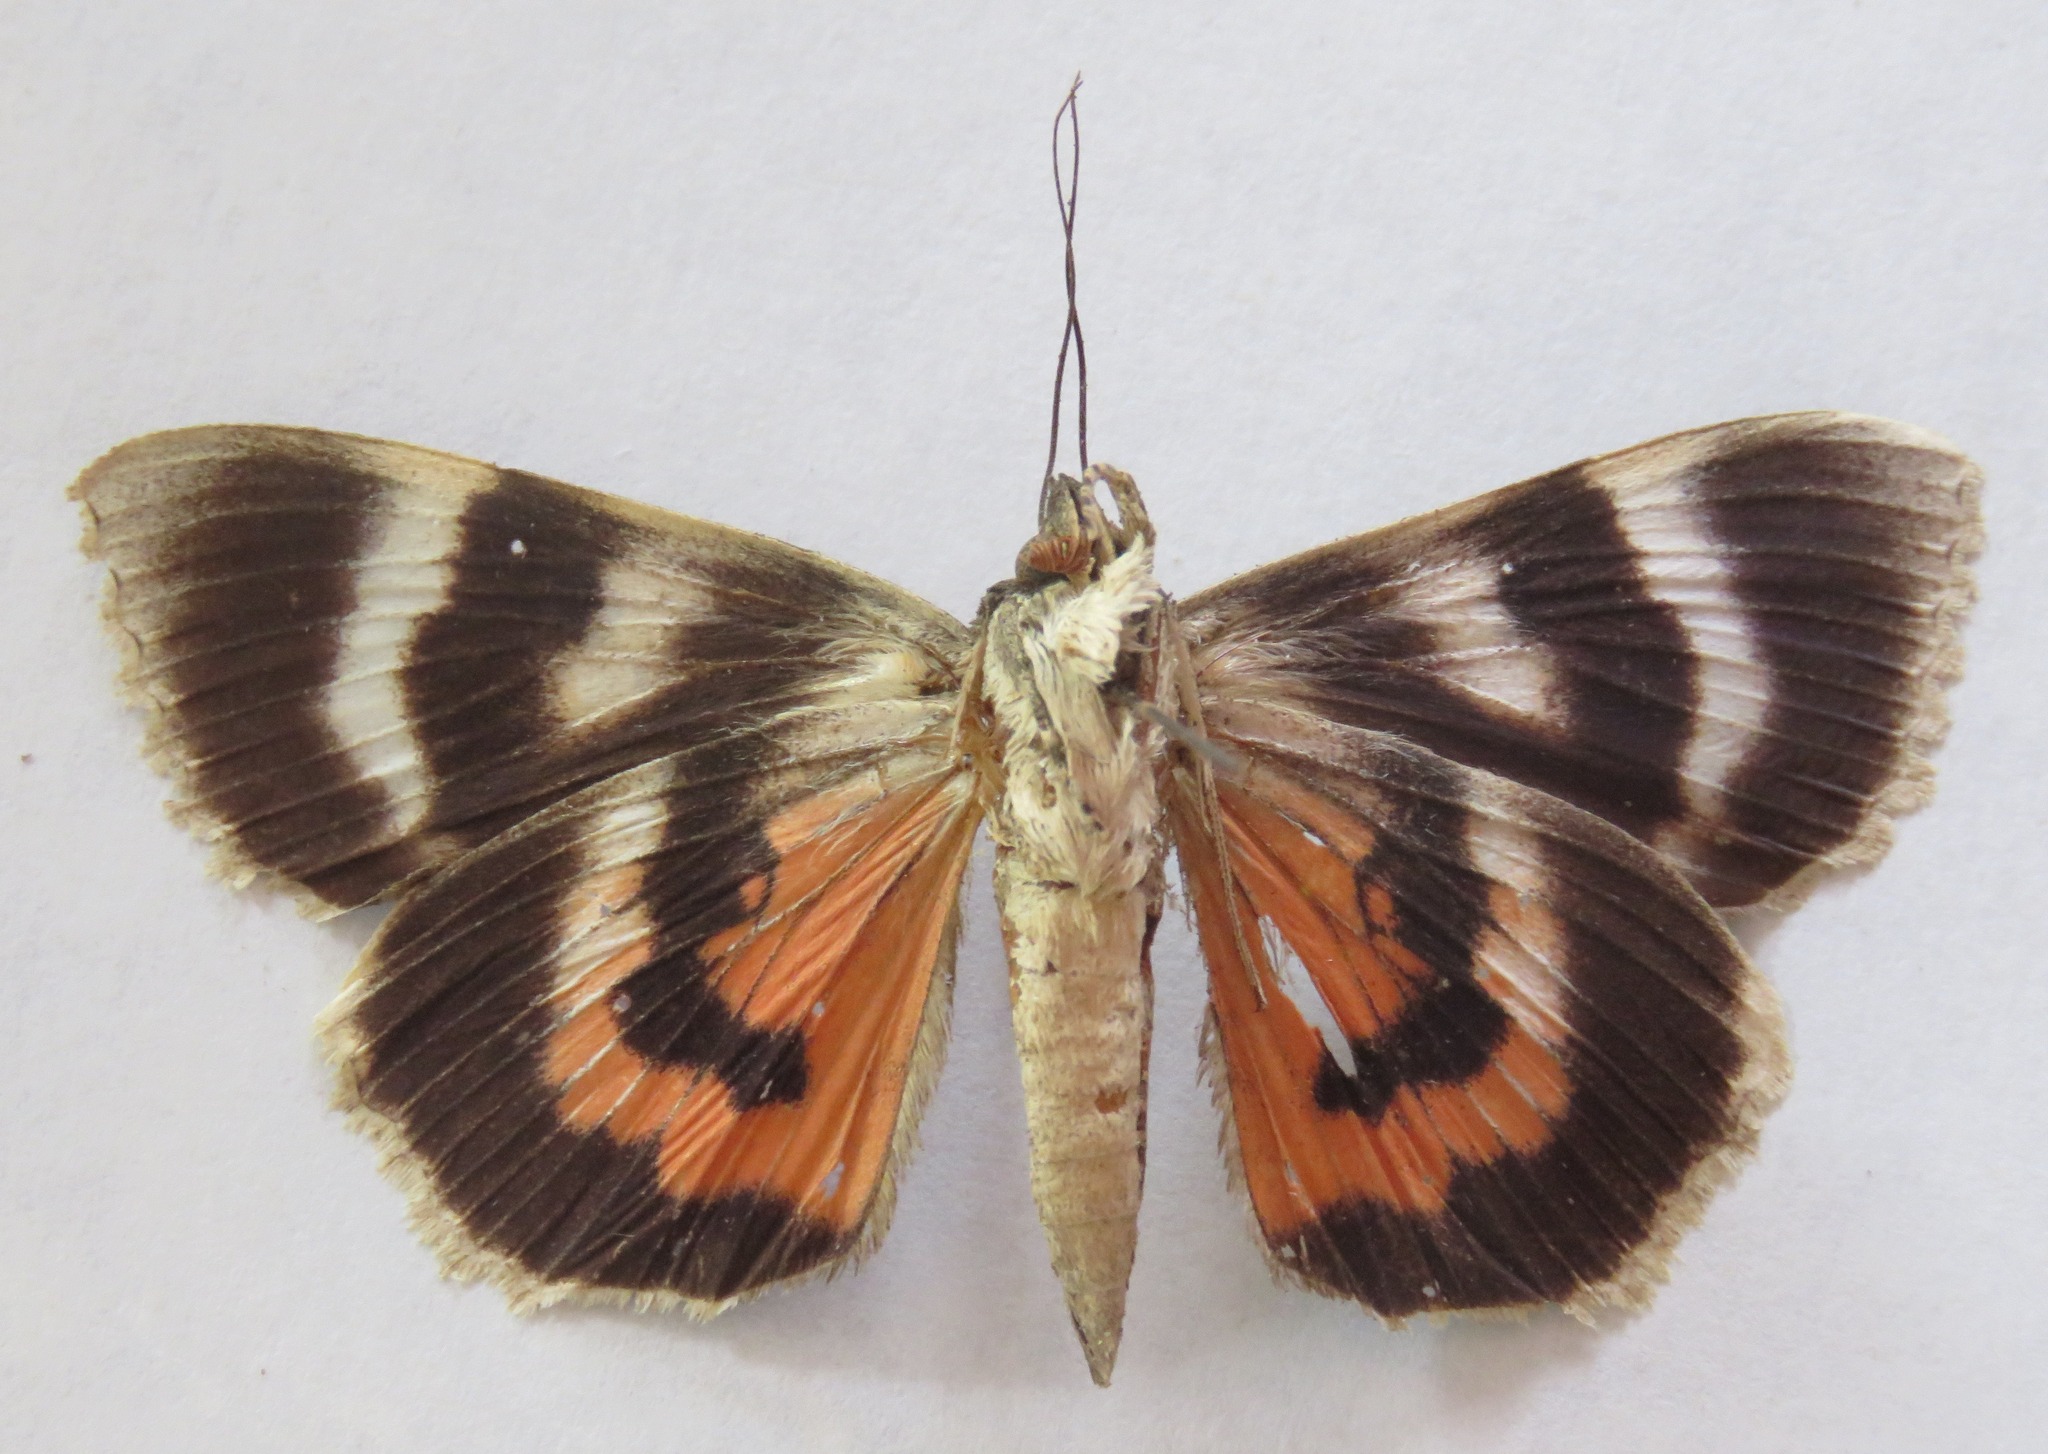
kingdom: Animalia
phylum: Arthropoda
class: Insecta
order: Lepidoptera
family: Erebidae
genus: Catocala
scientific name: Catocala nupta
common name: Red underwing
